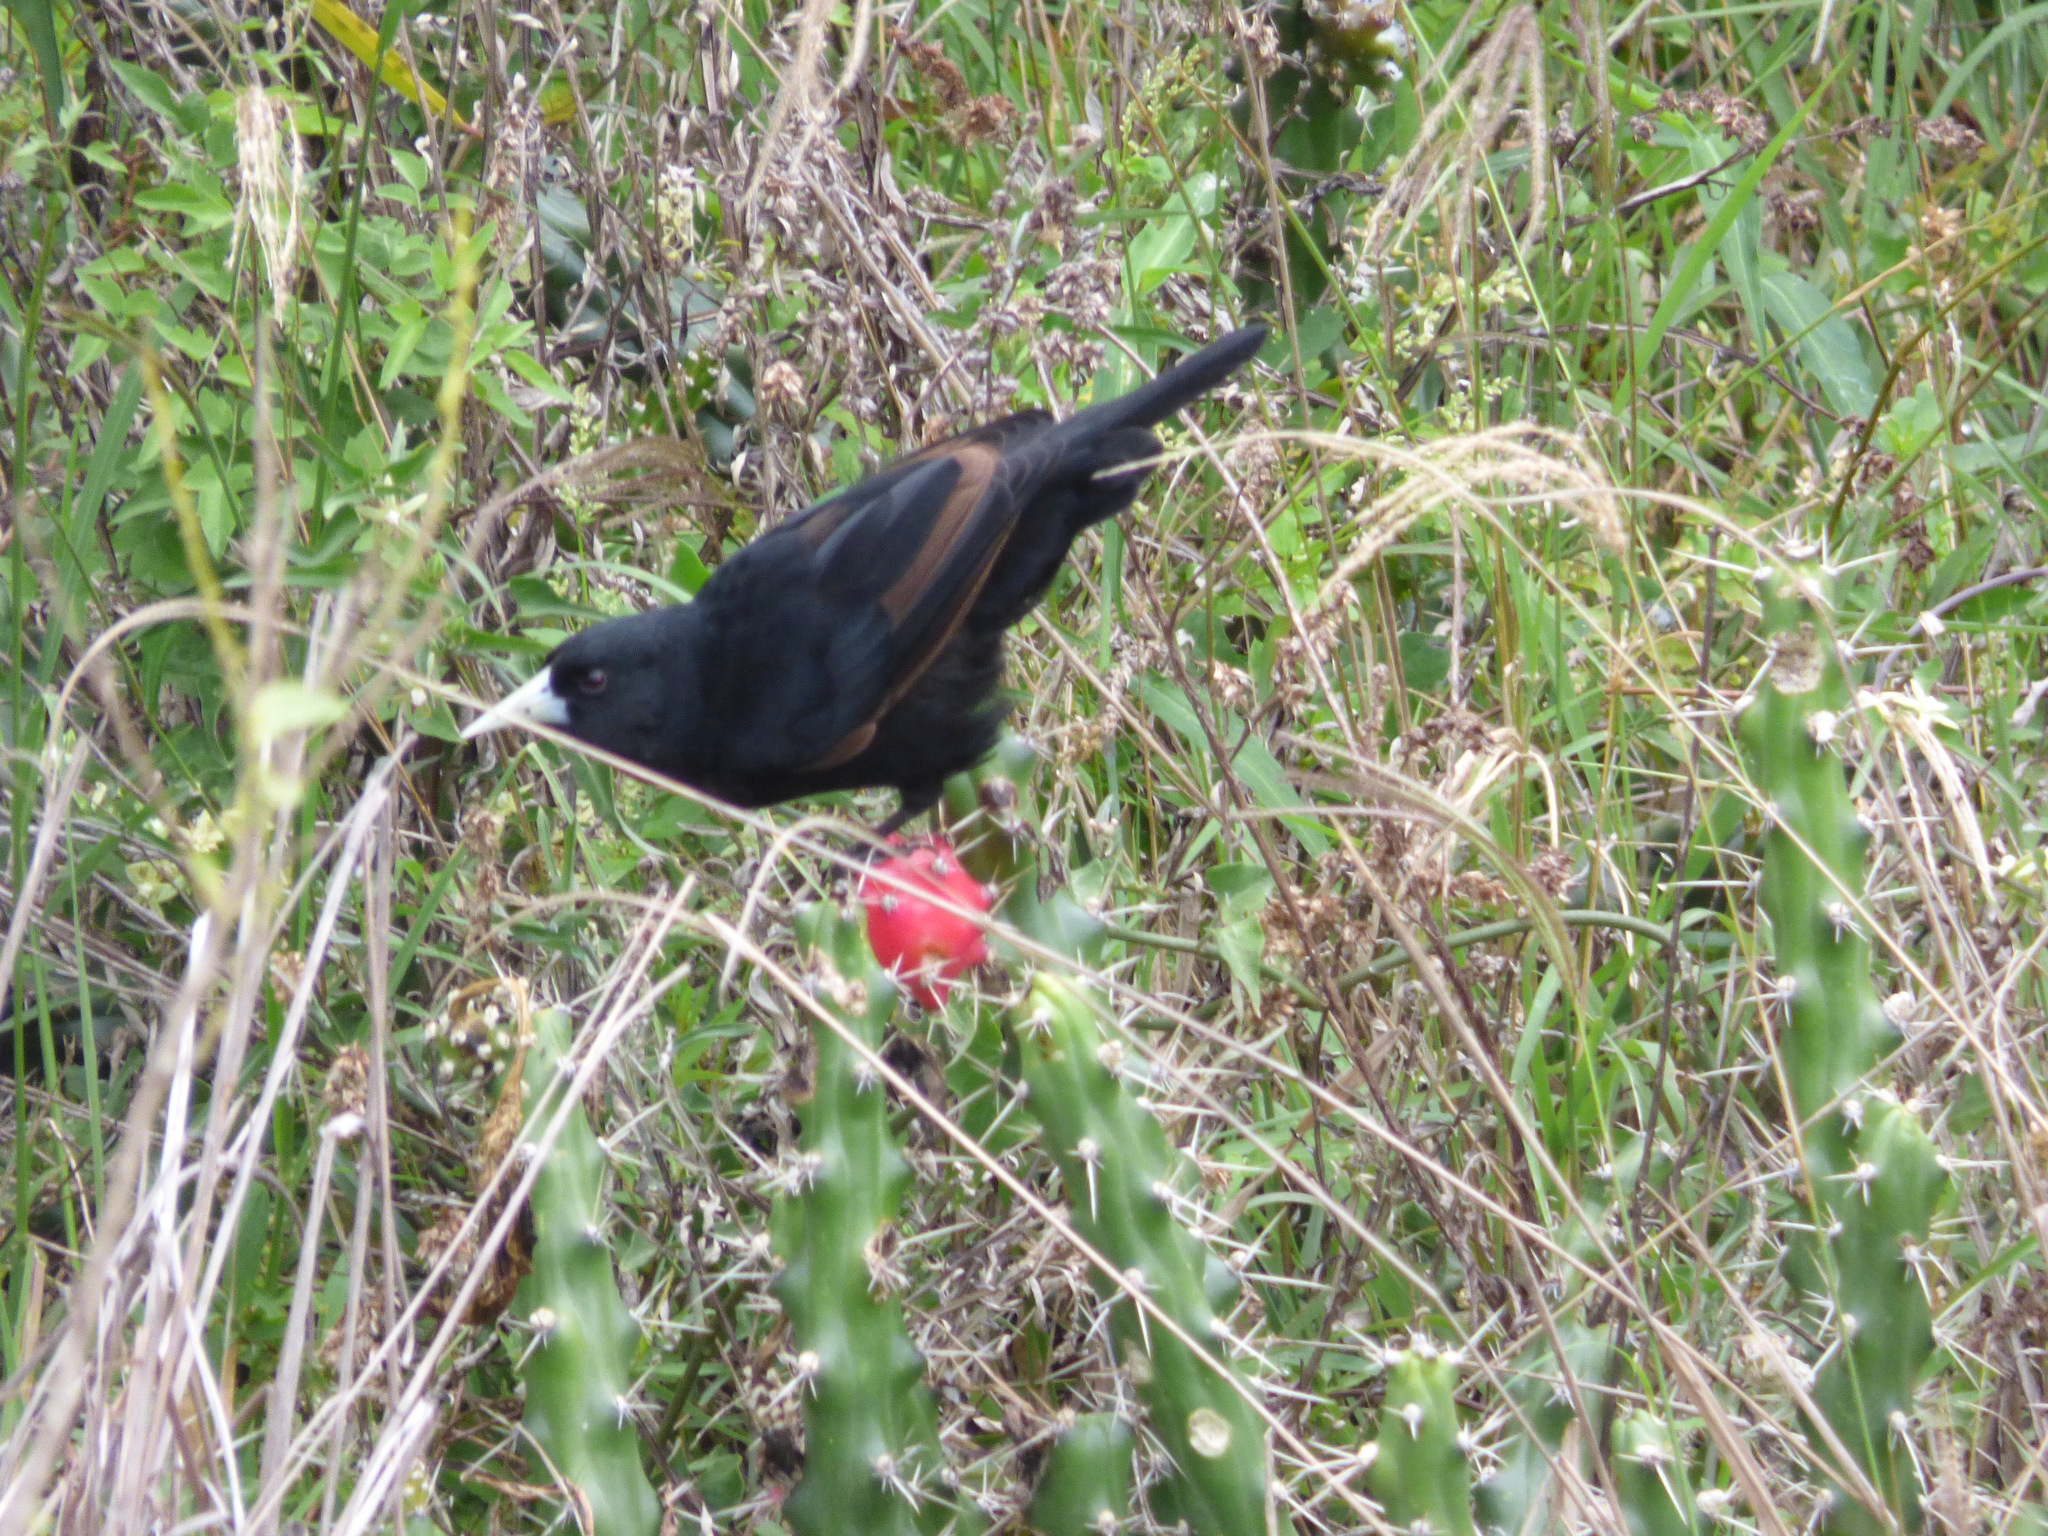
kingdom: Animalia
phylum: Chordata
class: Aves
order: Passeriformes
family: Icteridae
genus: Cacicus
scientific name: Cacicus solitarius
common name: Solitary cacique
